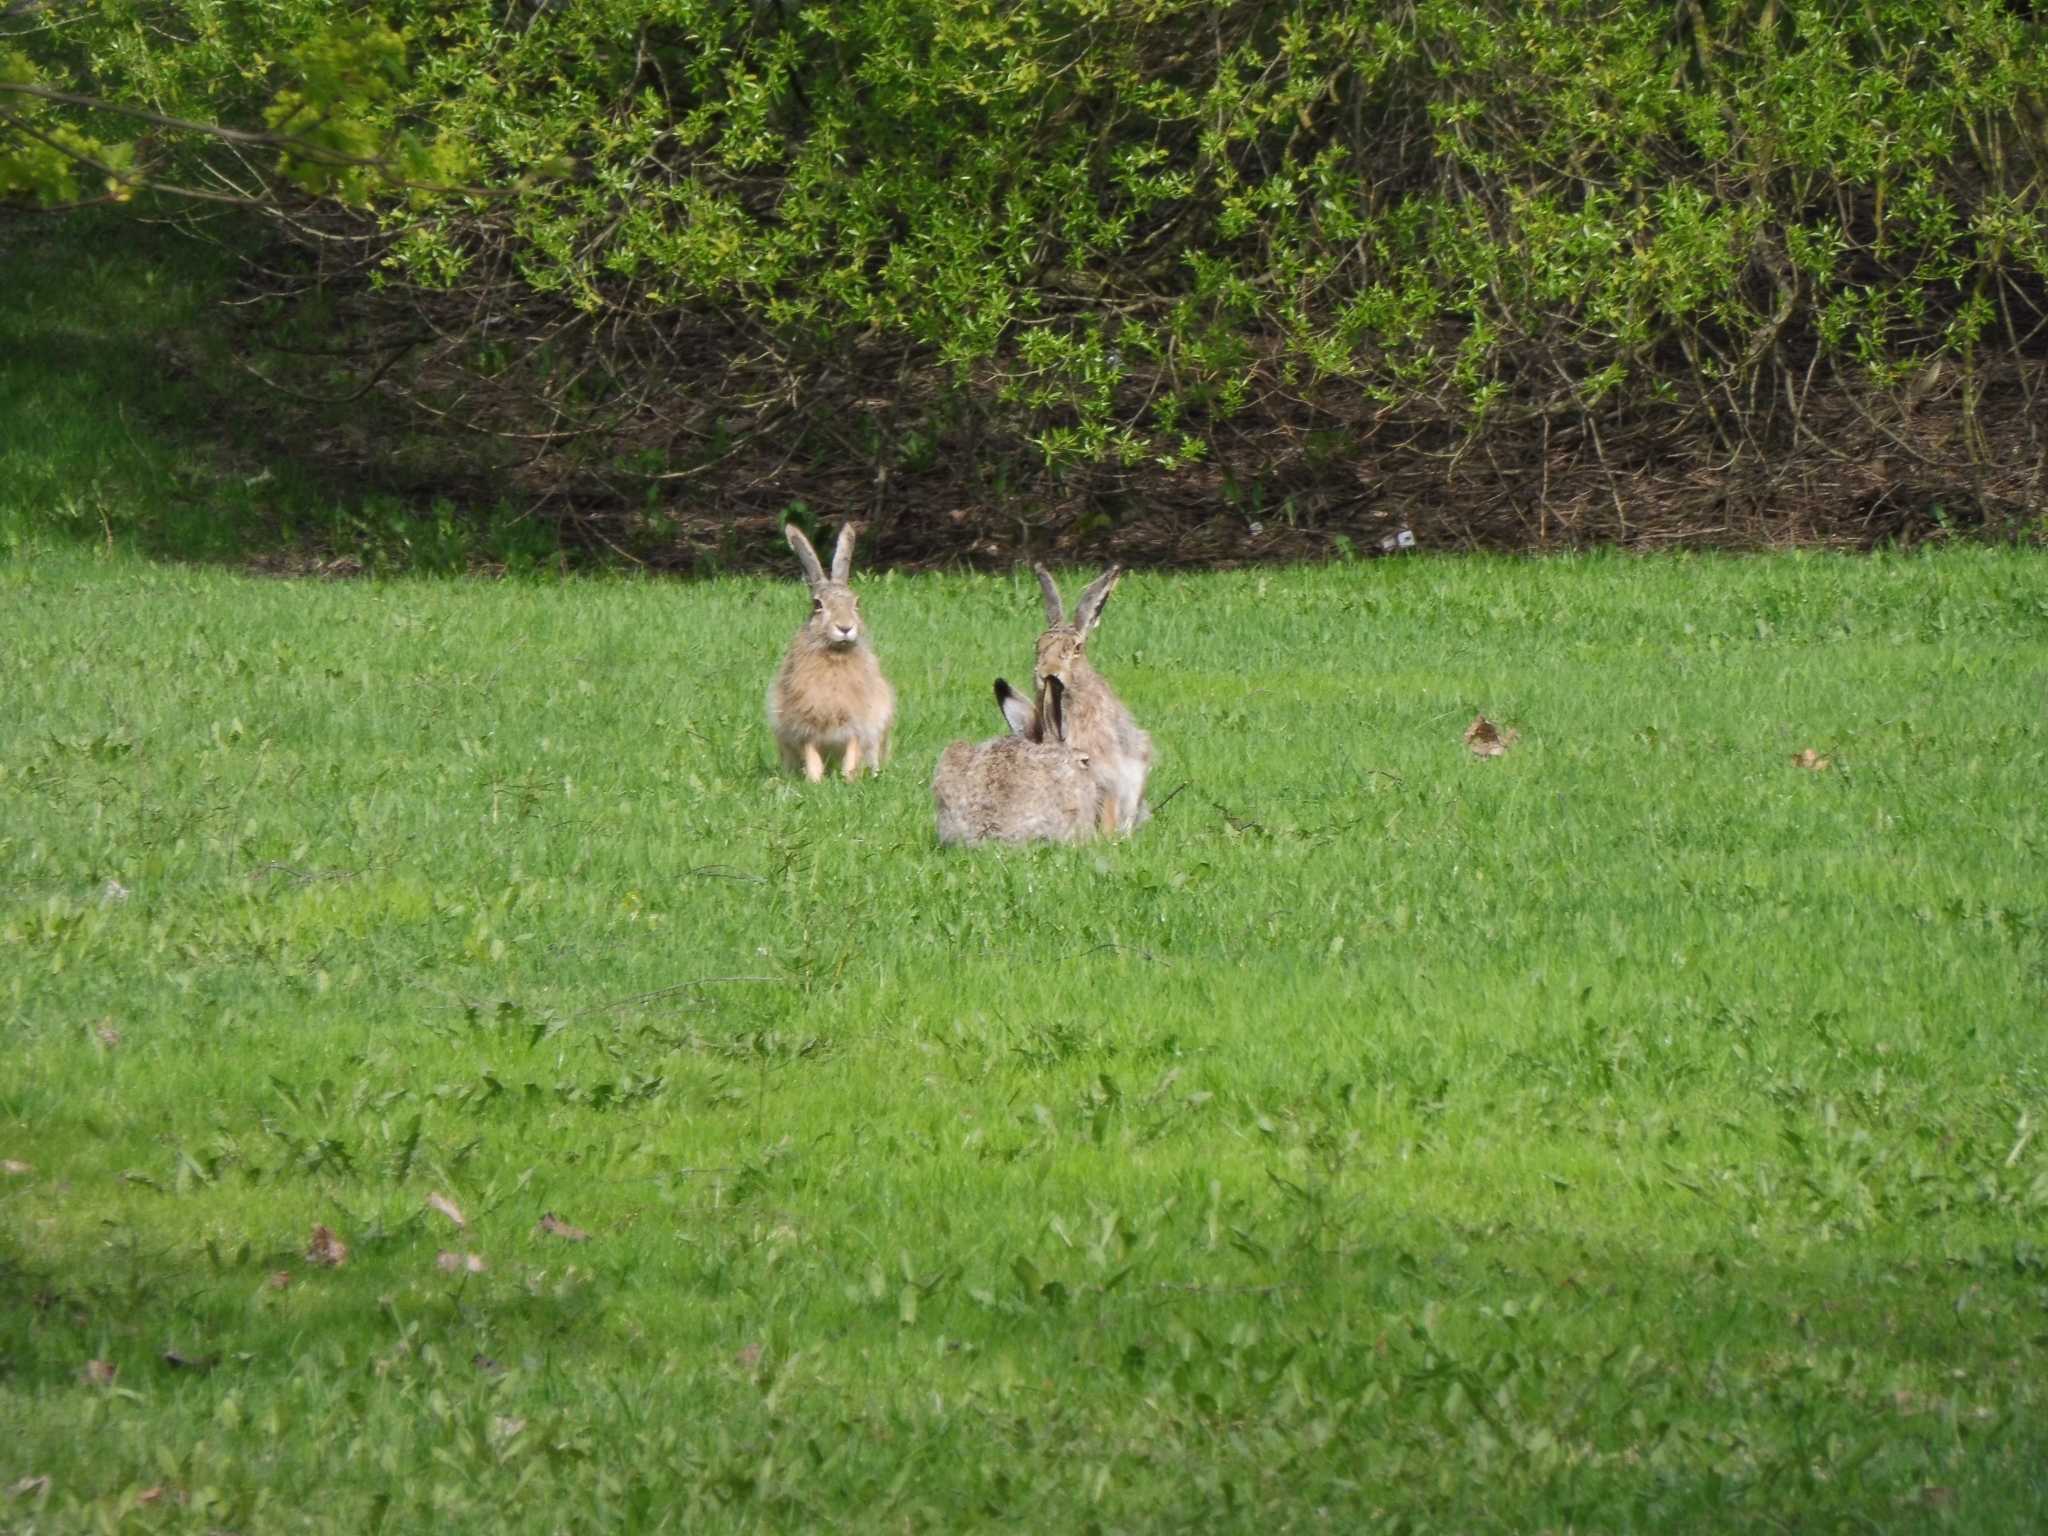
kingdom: Animalia
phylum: Chordata
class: Mammalia
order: Lagomorpha
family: Leporidae
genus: Lepus
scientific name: Lepus europaeus
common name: European hare
